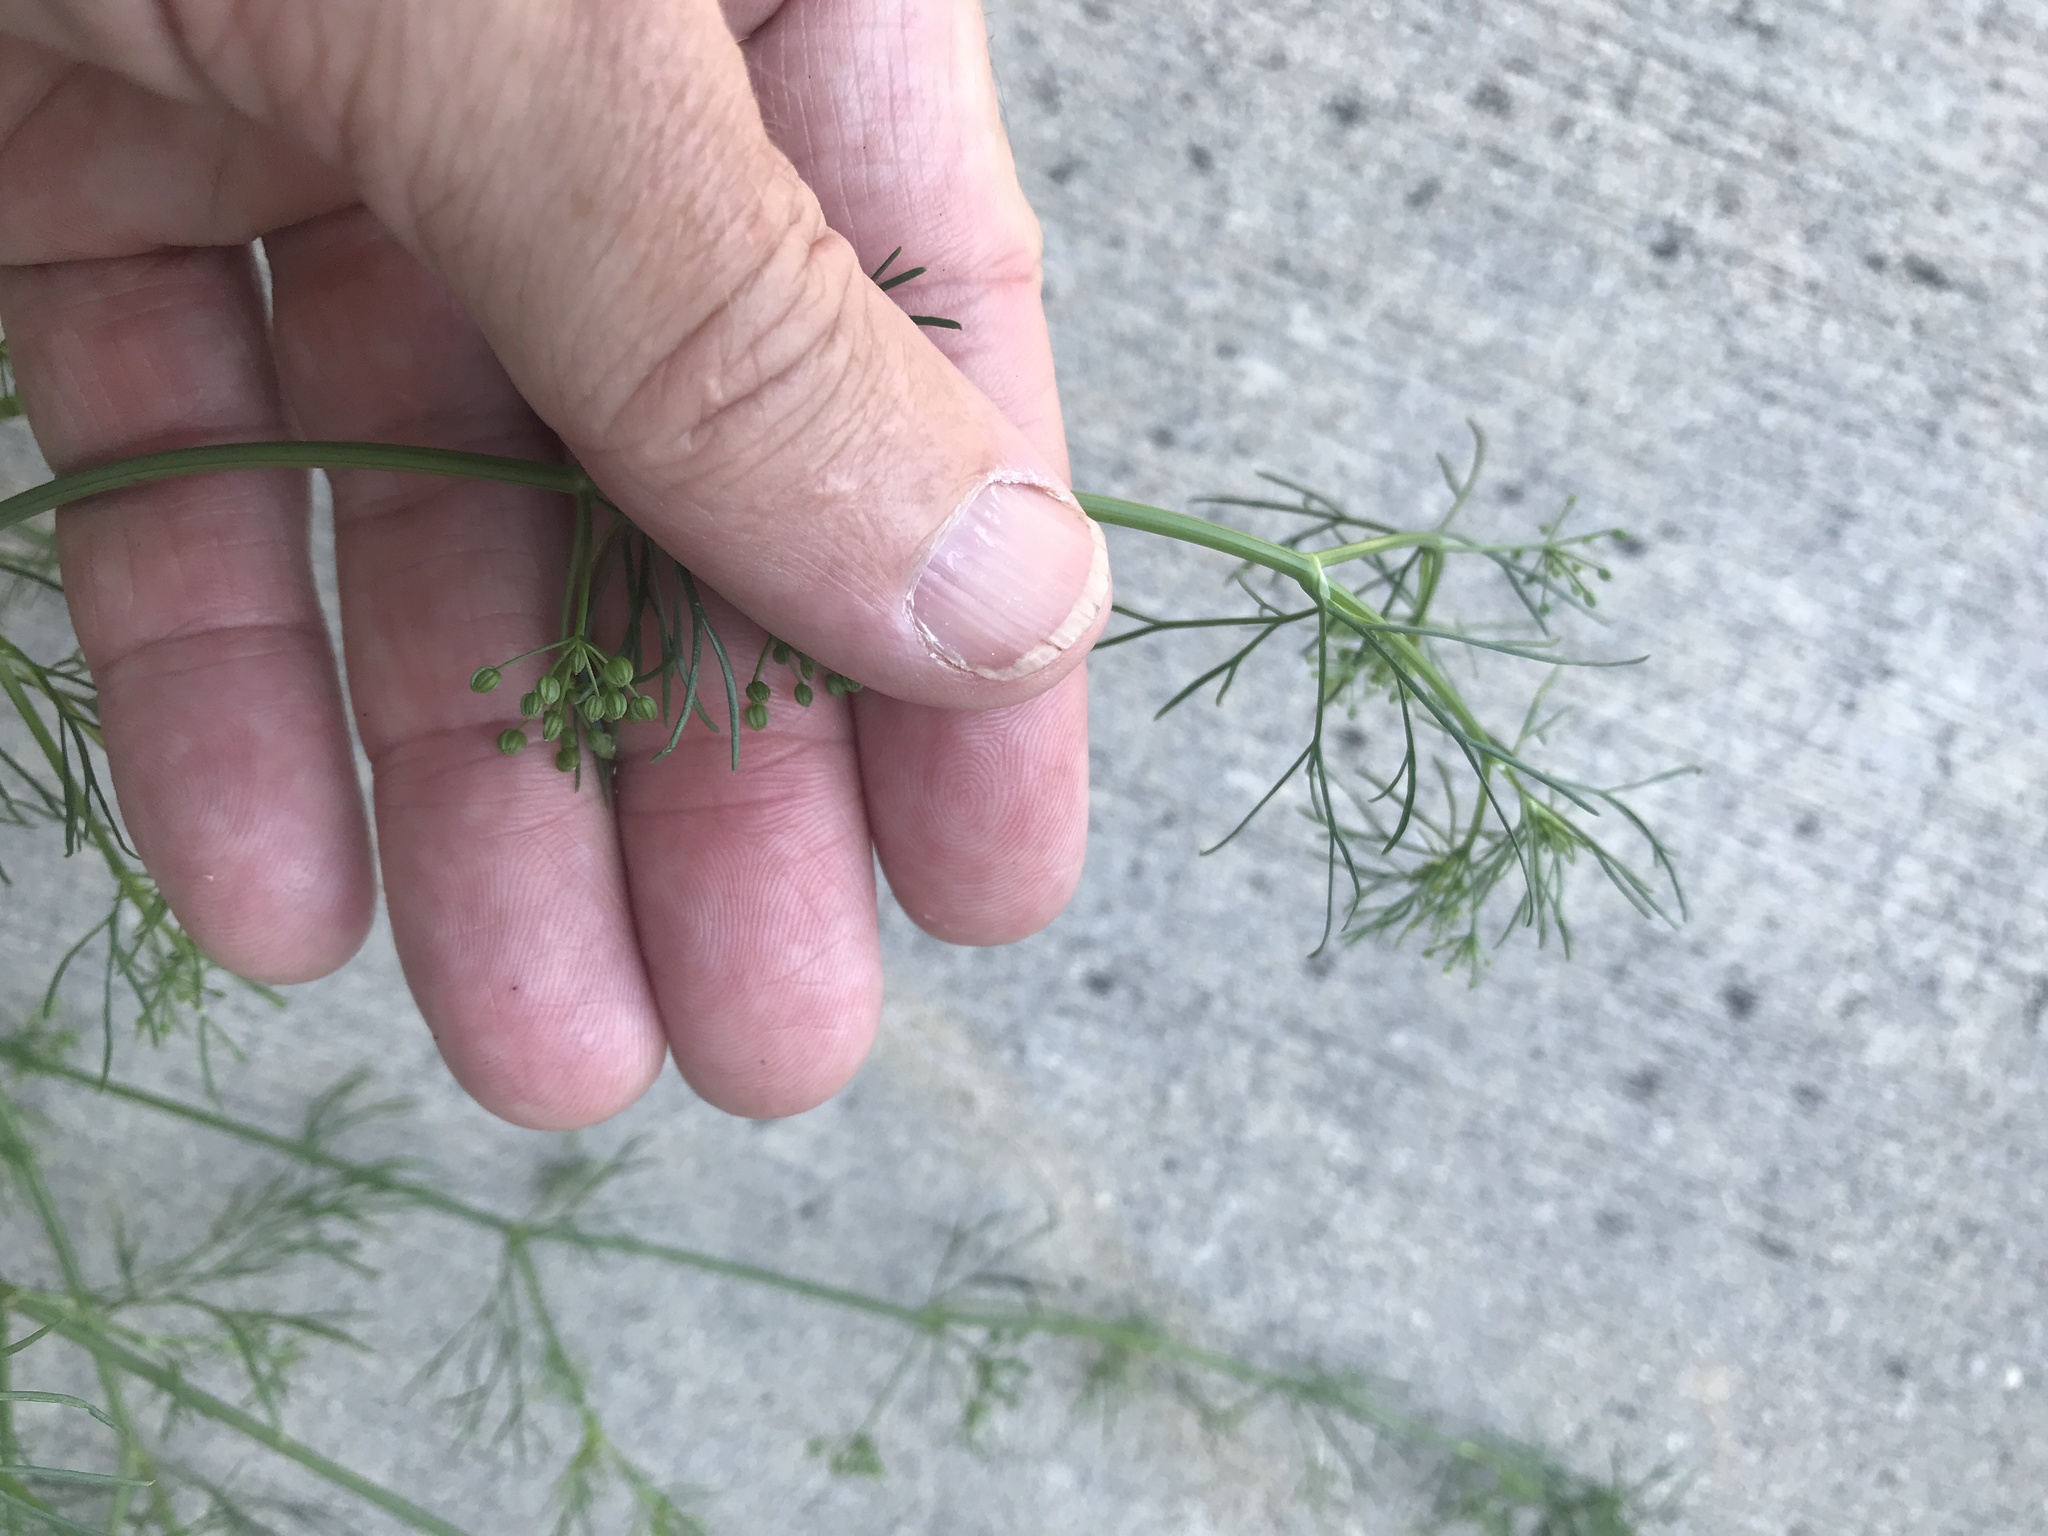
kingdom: Plantae
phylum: Tracheophyta
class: Magnoliopsida
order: Apiales
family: Apiaceae
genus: Coriandrum
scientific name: Coriandrum sativum
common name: Coriander
